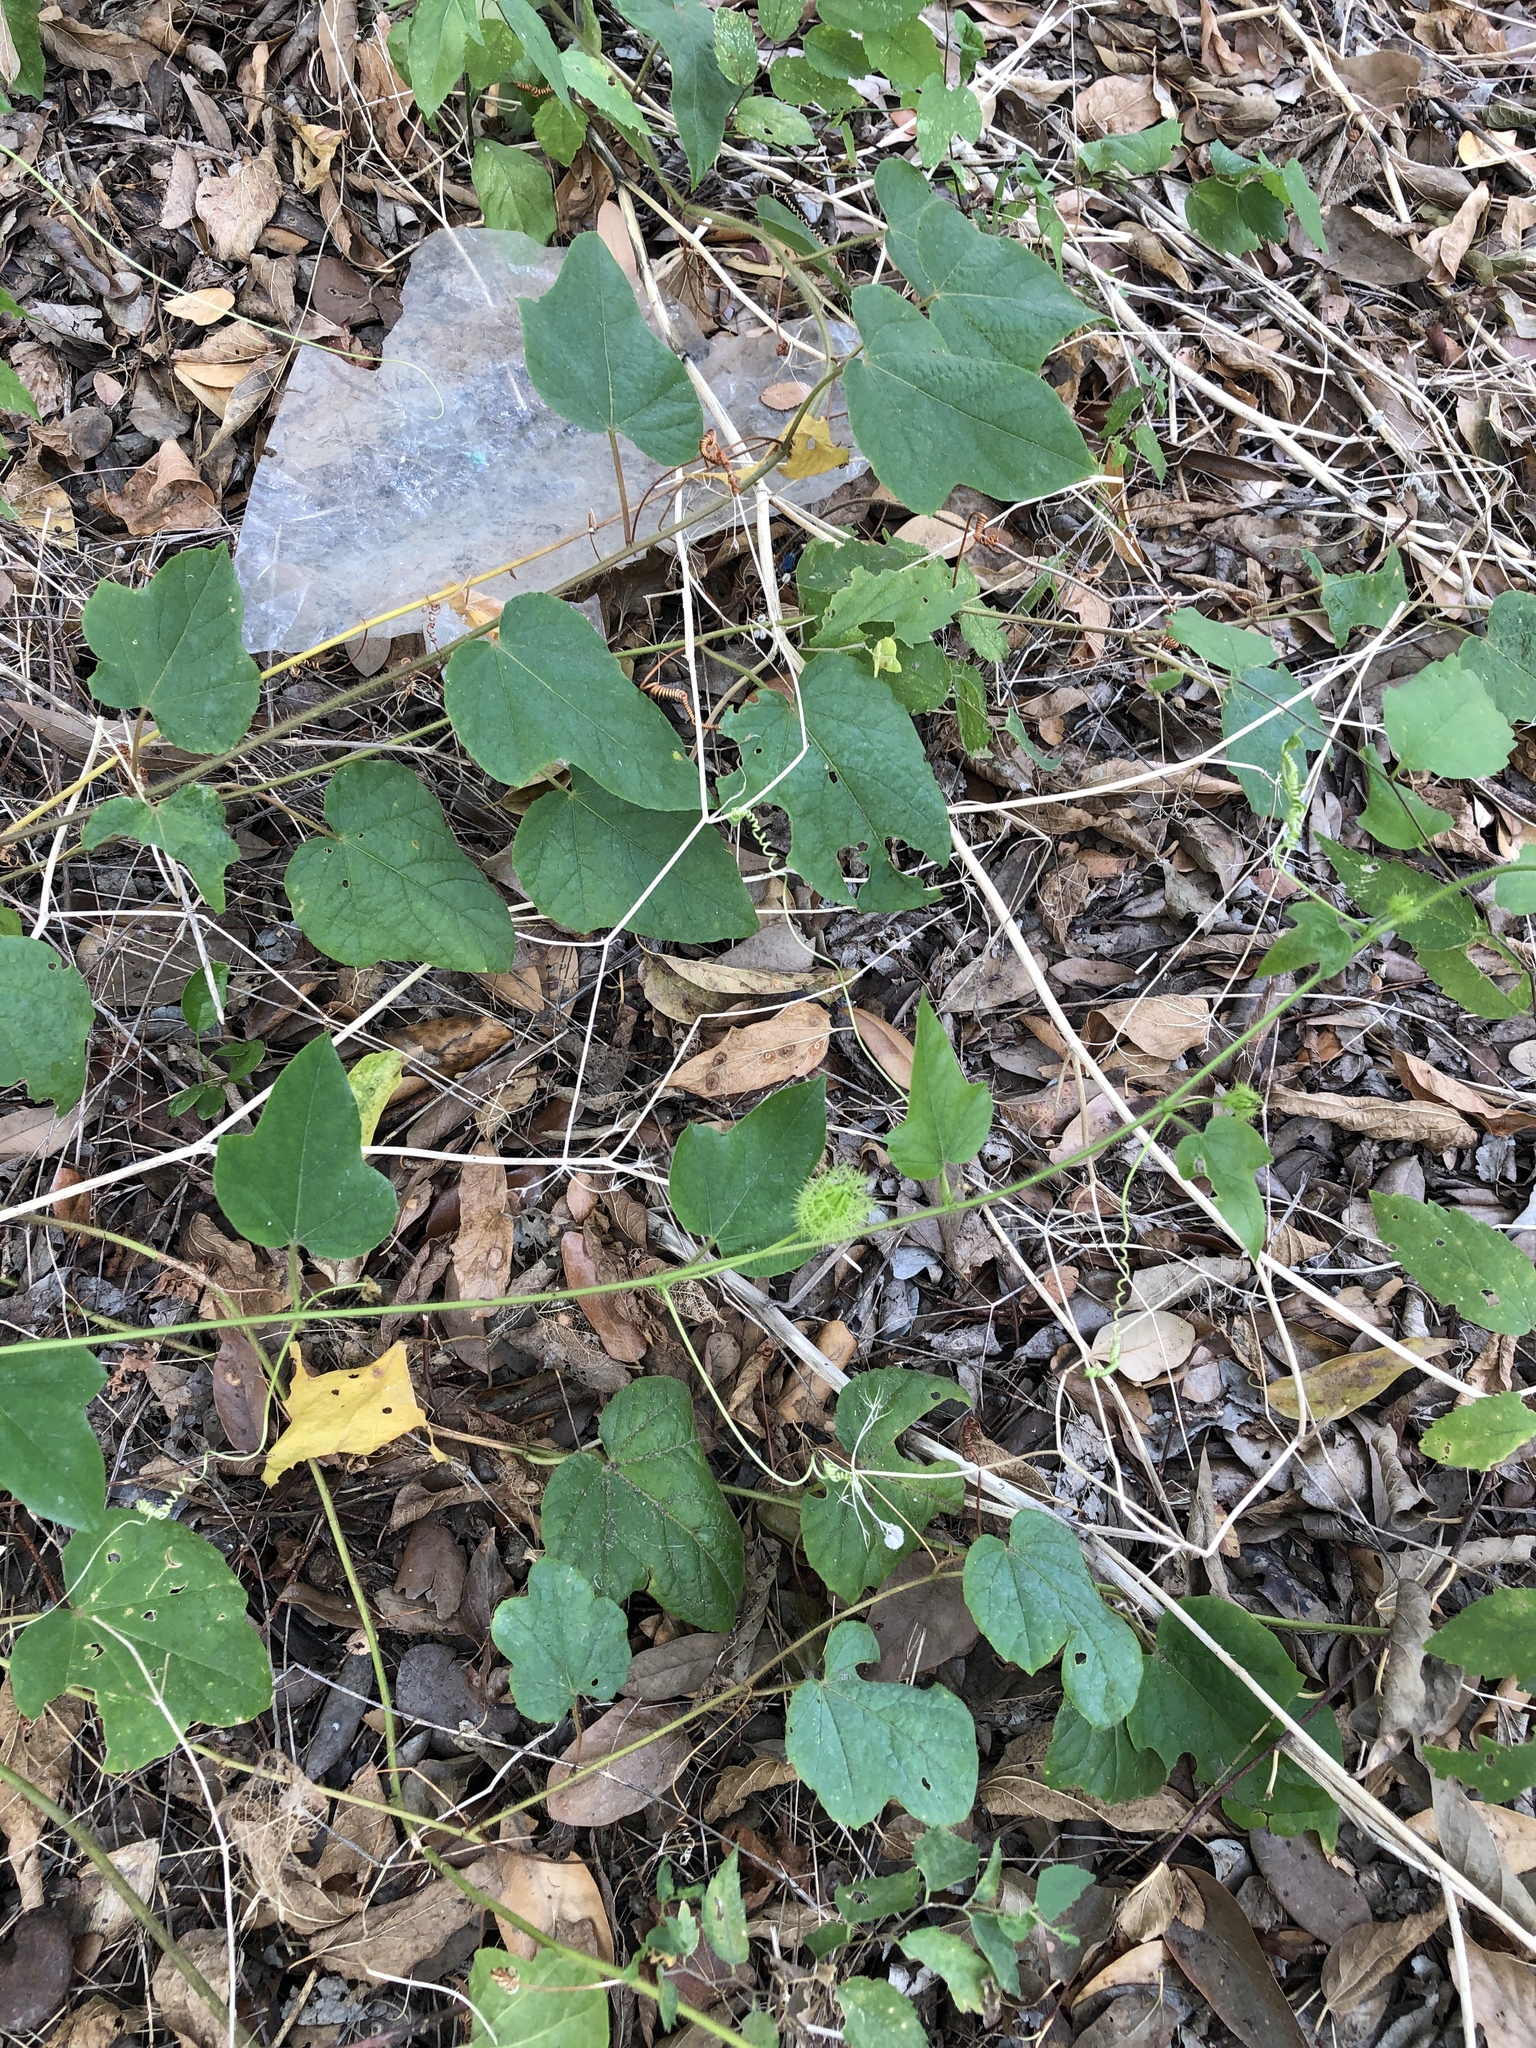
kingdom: Plantae
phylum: Tracheophyta
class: Magnoliopsida
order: Malpighiales
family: Passifloraceae
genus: Passiflora
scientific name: Passiflora
